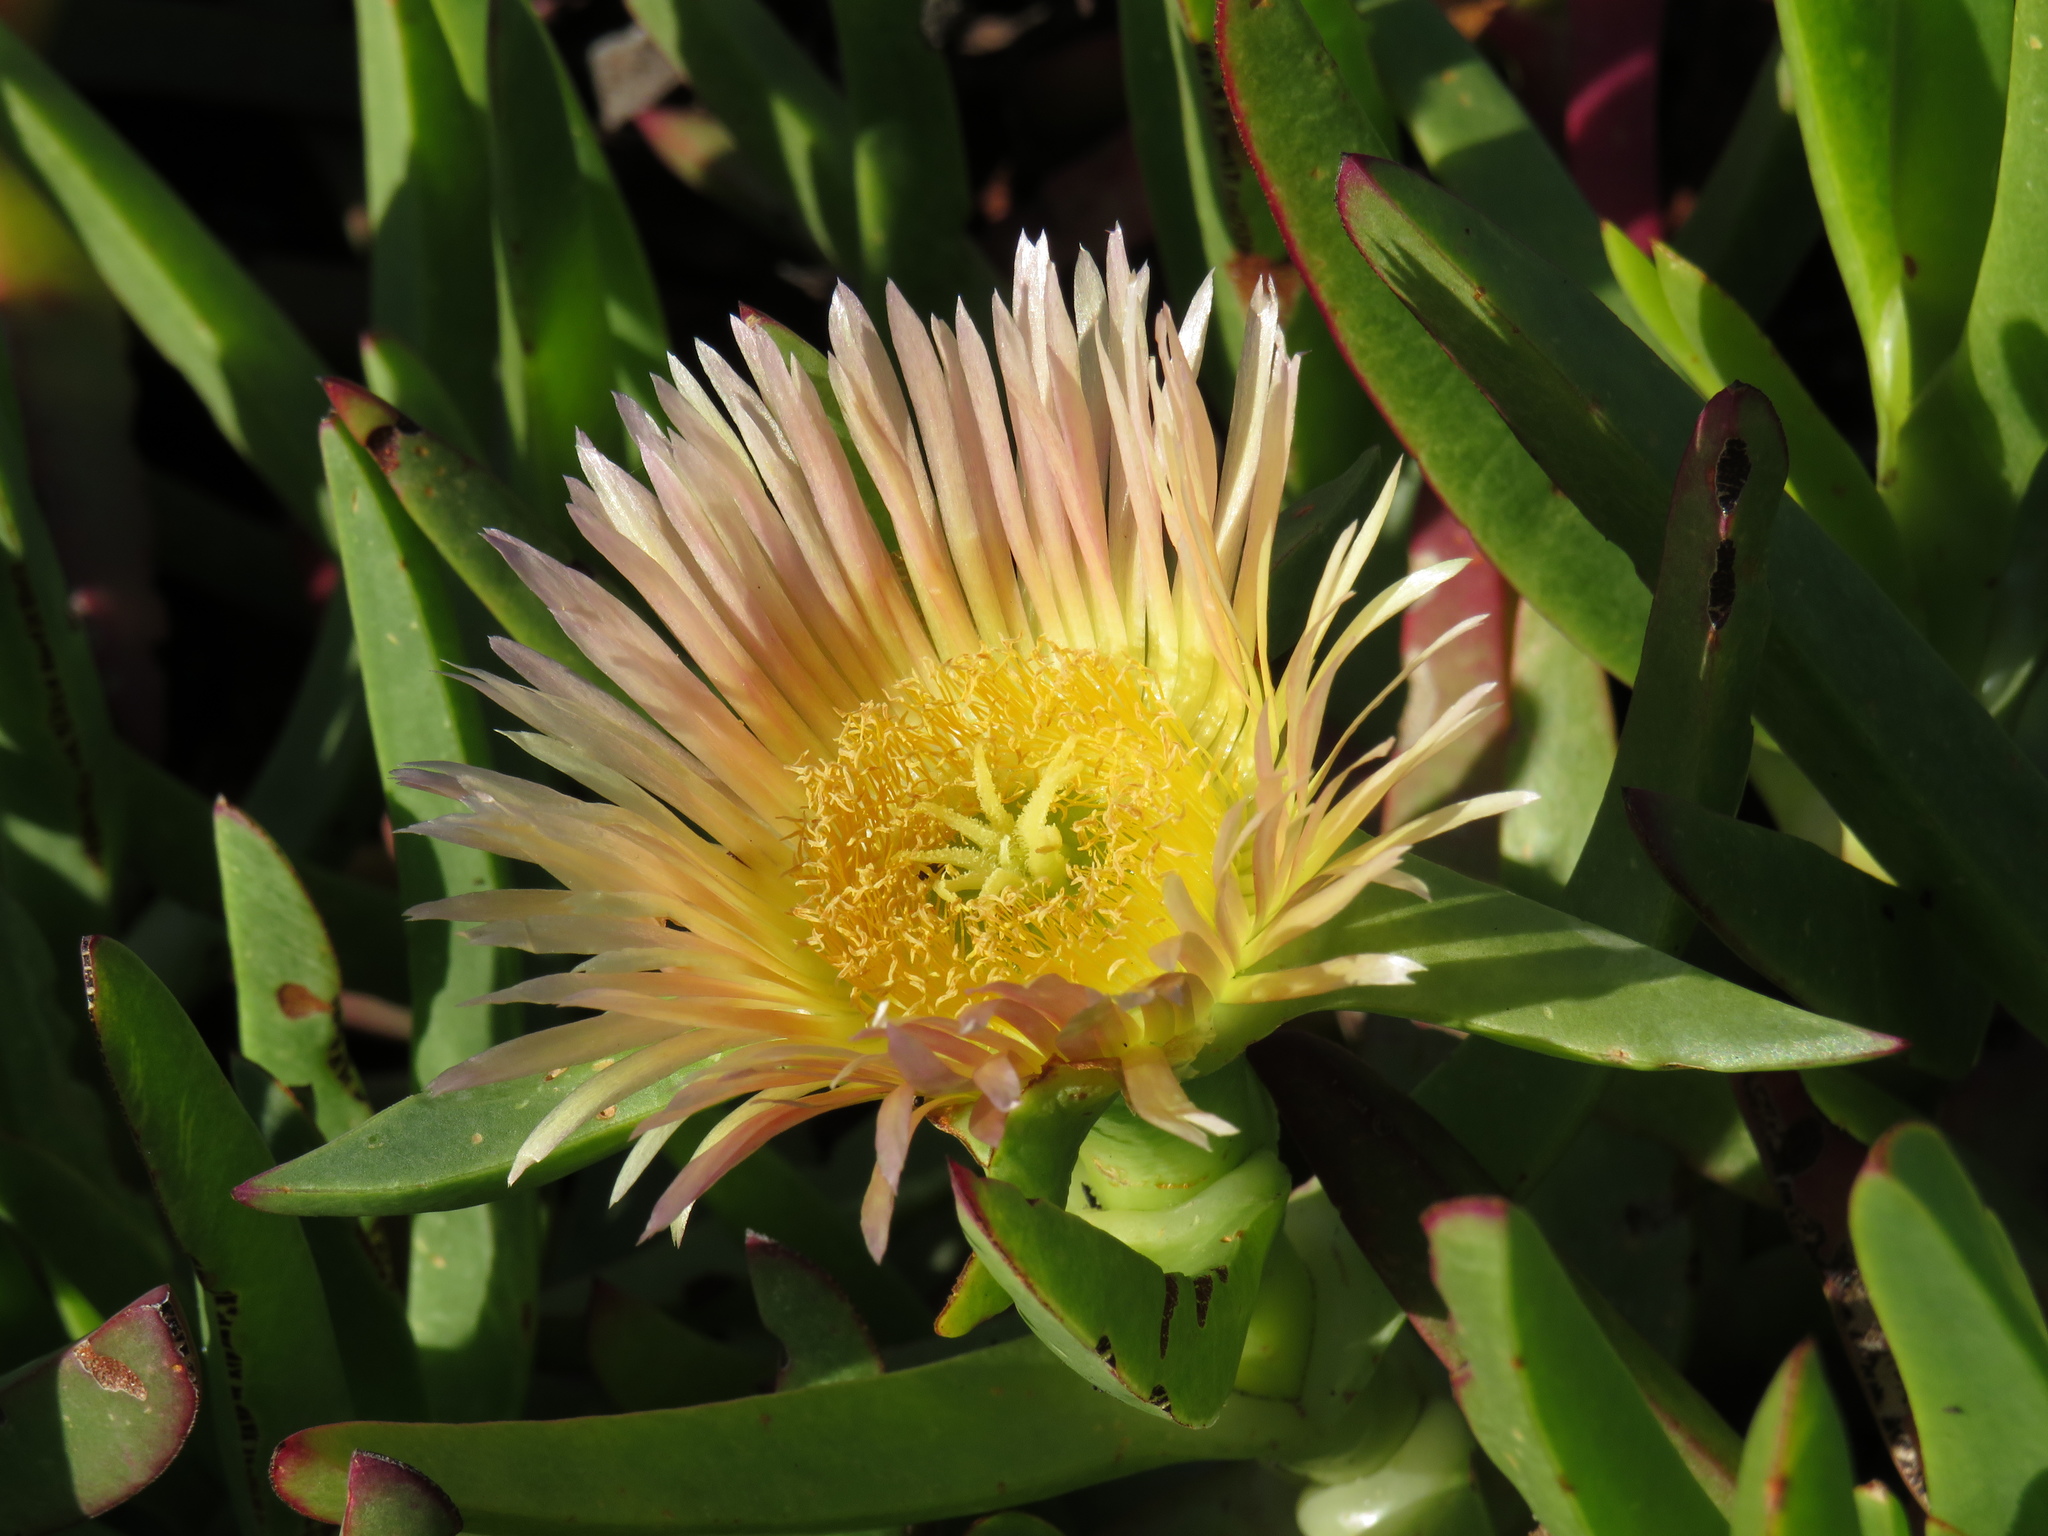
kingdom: Plantae
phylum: Tracheophyta
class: Magnoliopsida
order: Caryophyllales
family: Aizoaceae
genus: Carpobrotus
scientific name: Carpobrotus edulis
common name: Hottentot-fig
